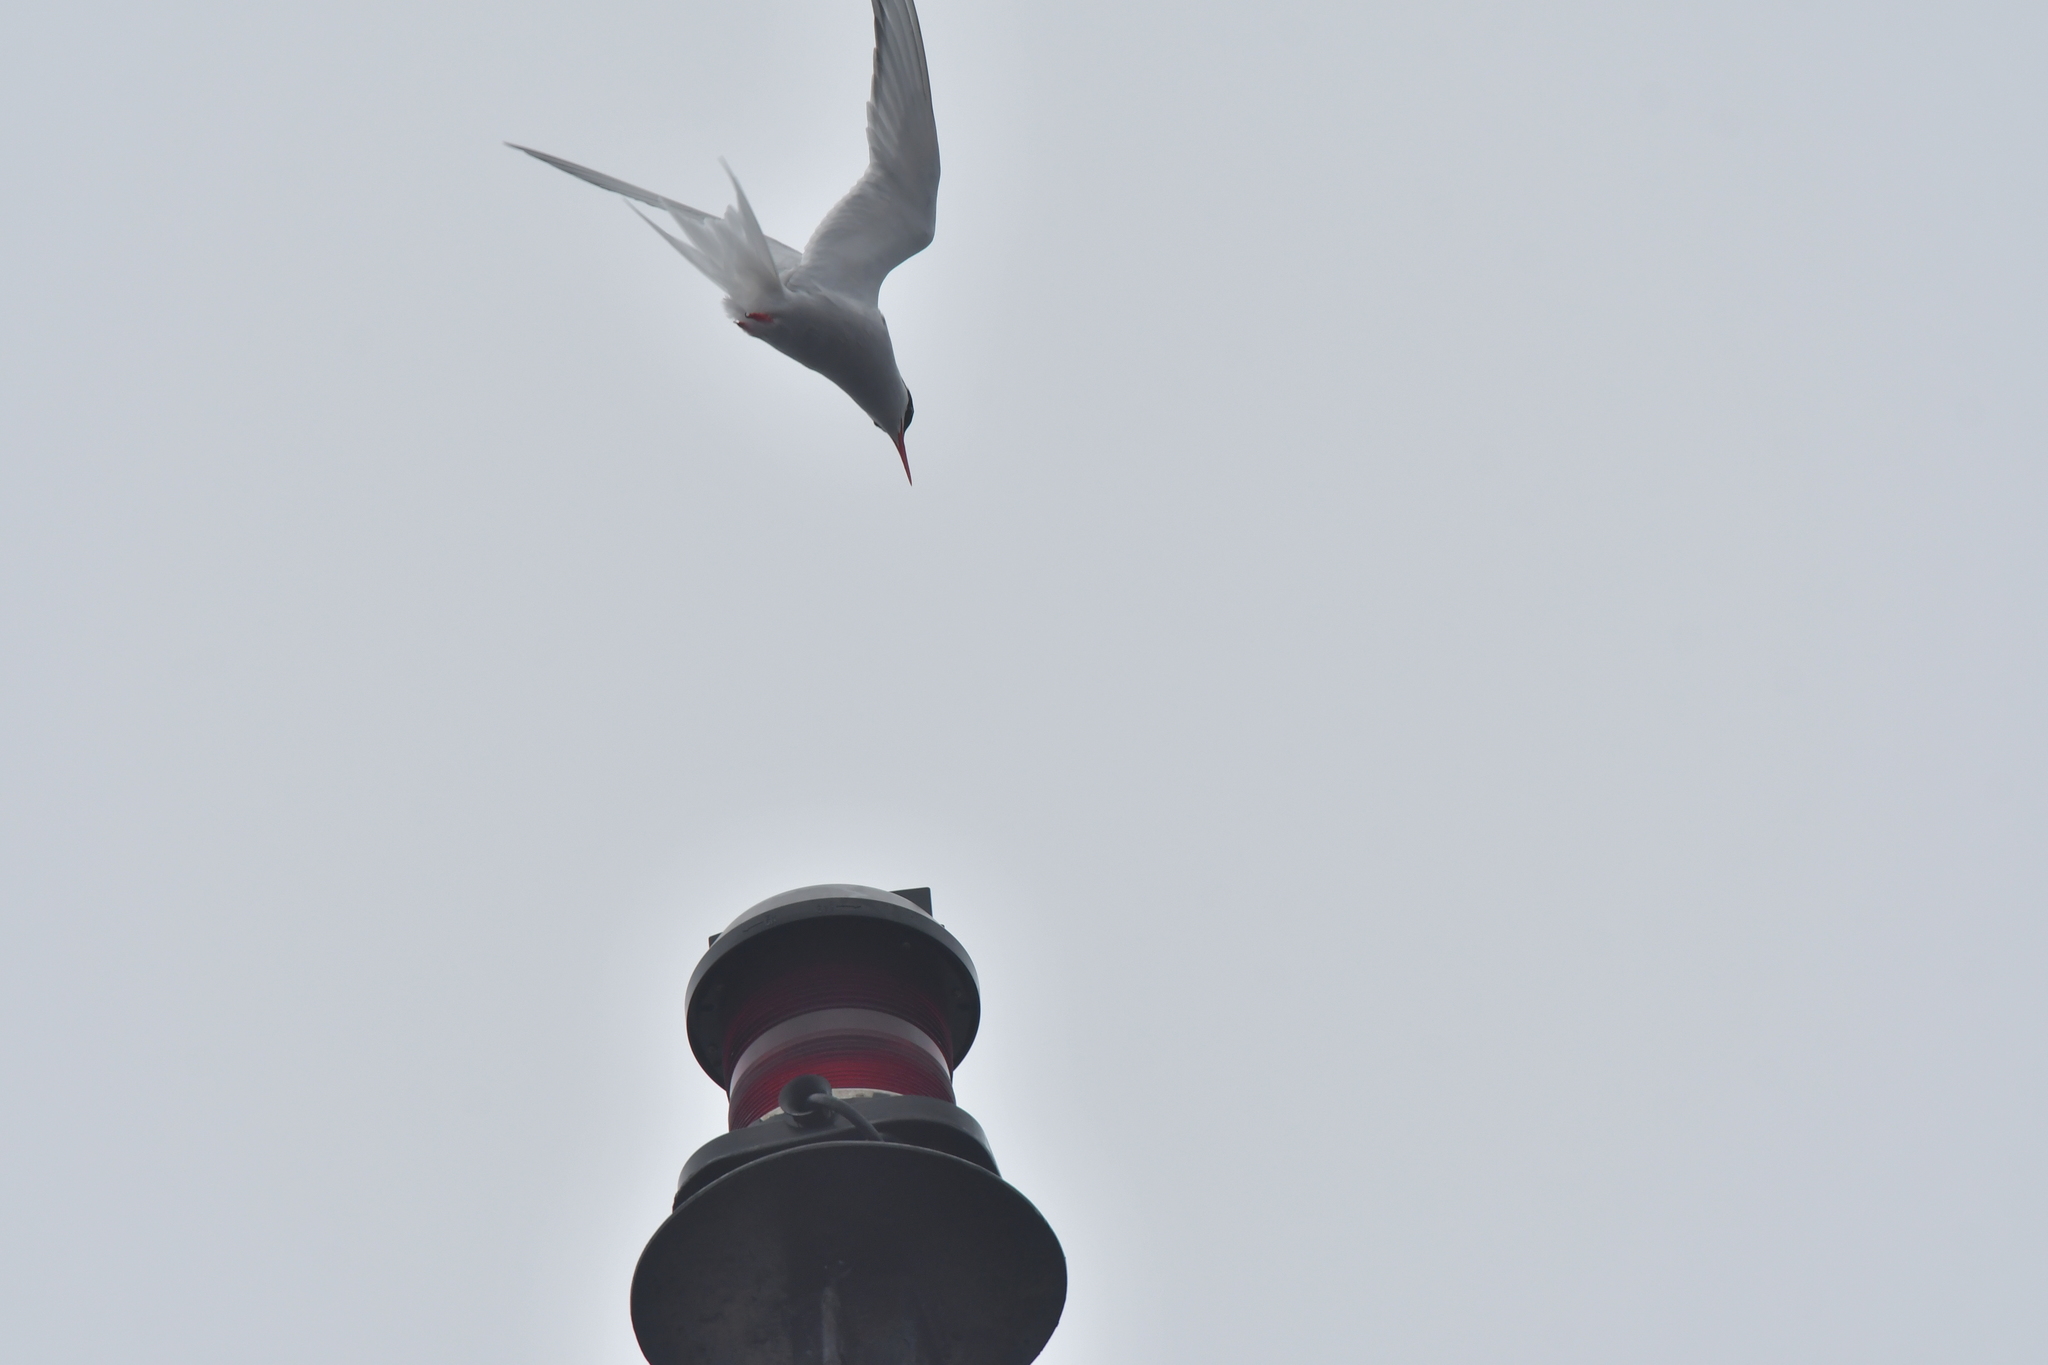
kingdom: Animalia
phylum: Chordata
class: Aves
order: Charadriiformes
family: Laridae
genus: Sterna
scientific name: Sterna vittata
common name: Antarctic tern
